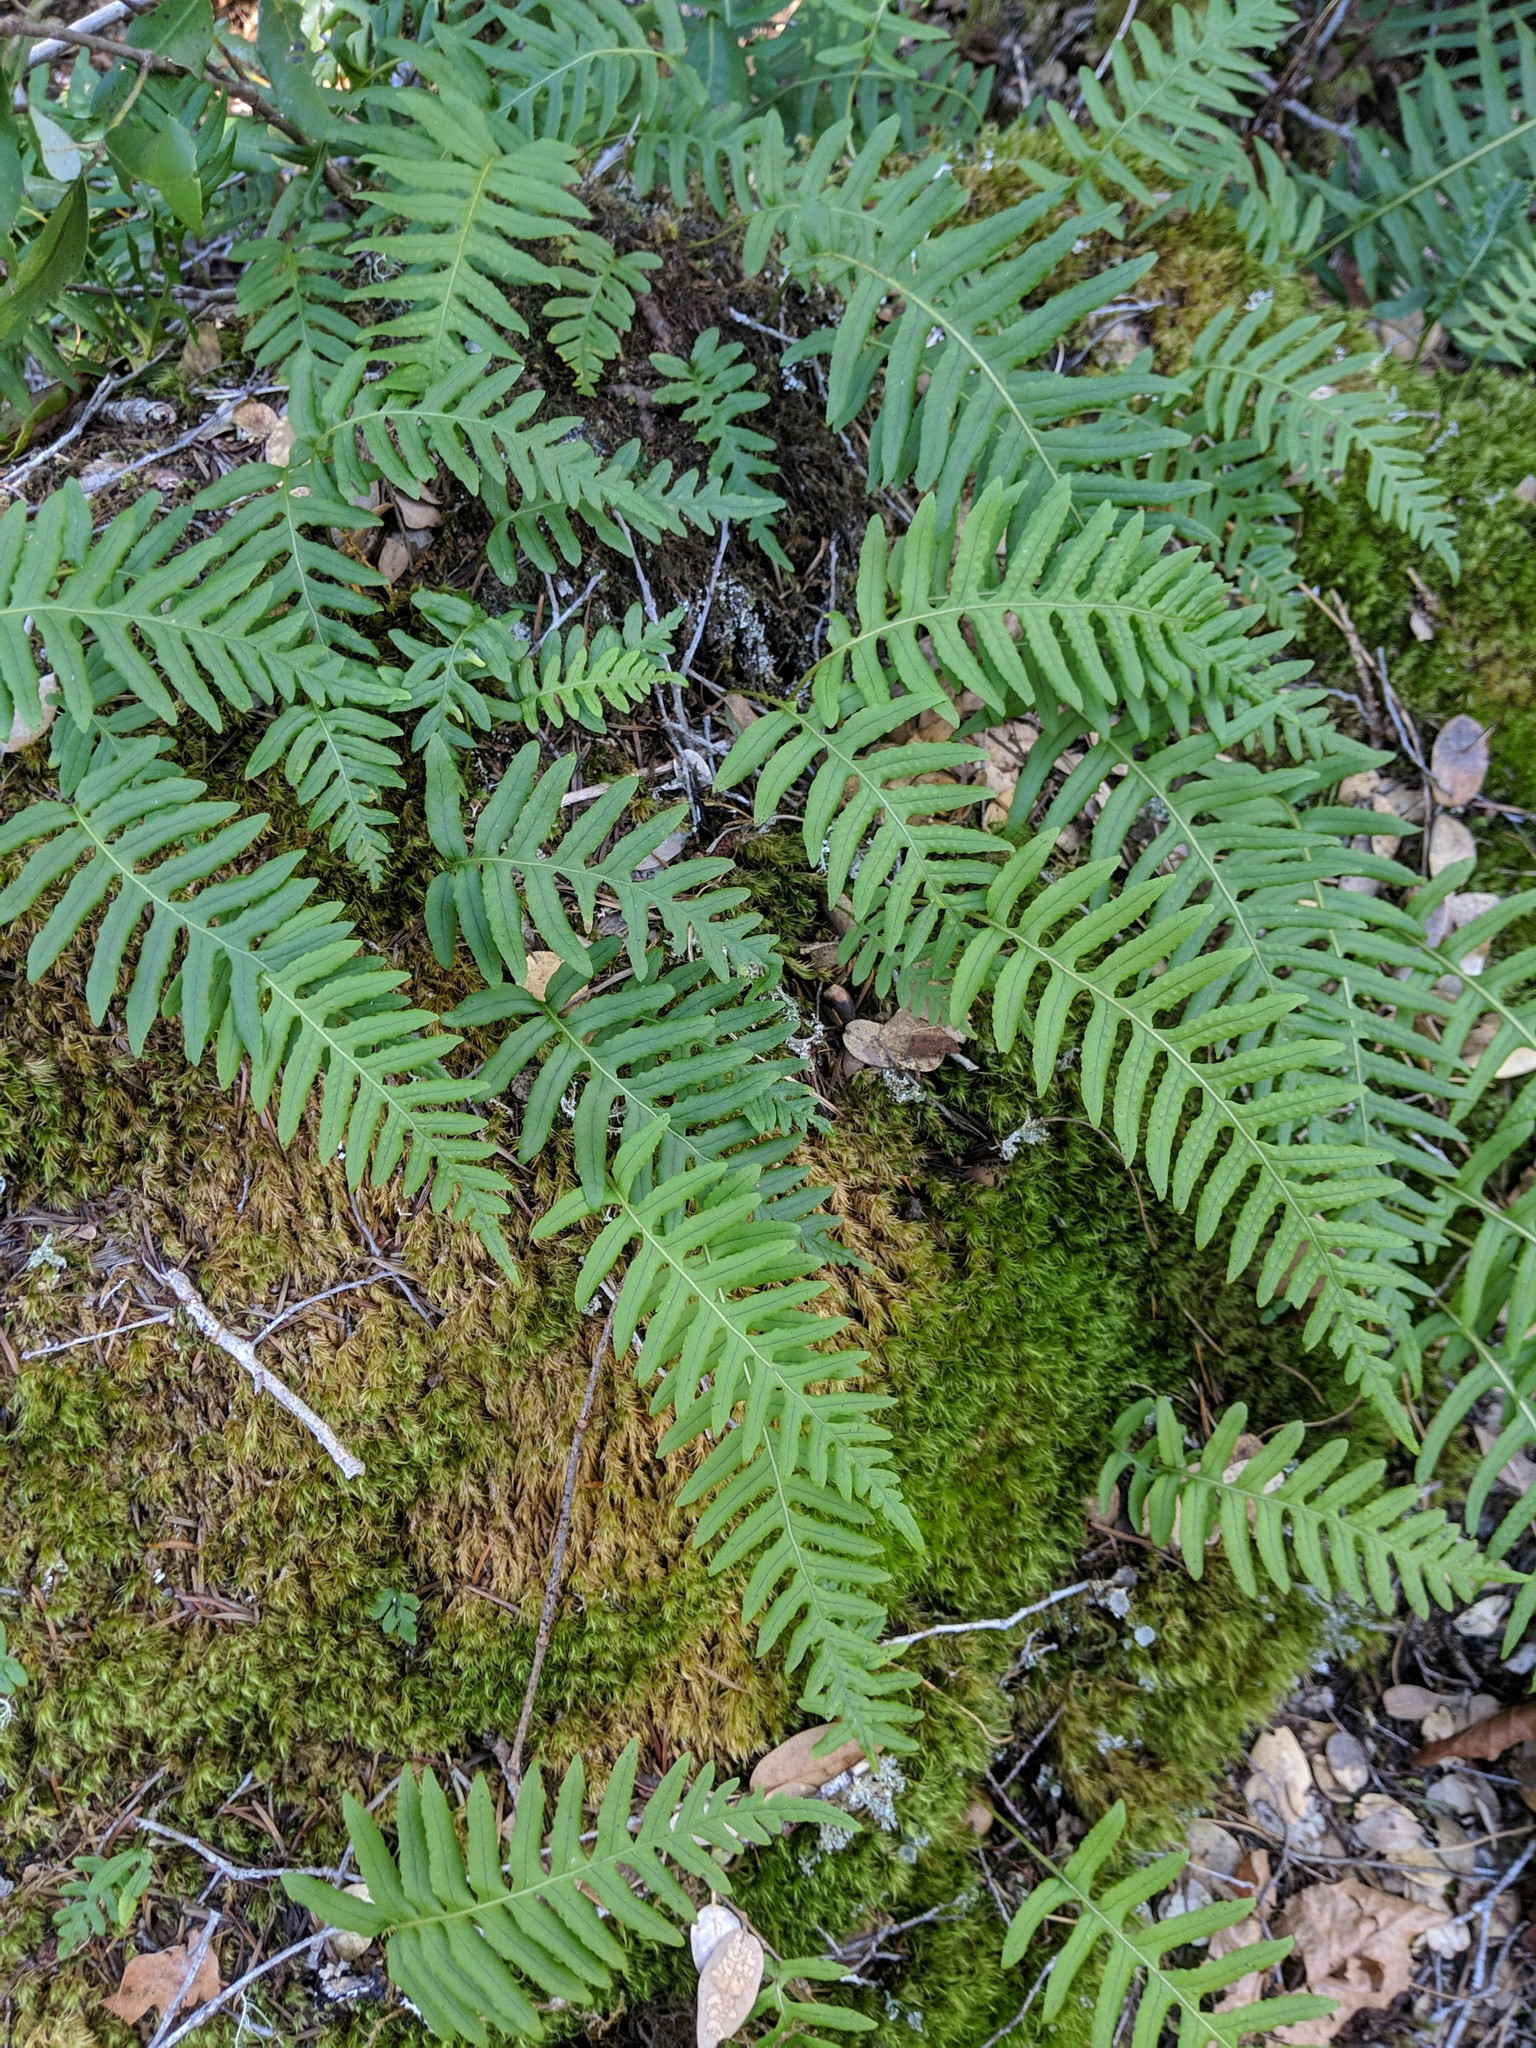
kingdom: Plantae
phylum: Tracheophyta
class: Polypodiopsida
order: Polypodiales
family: Polypodiaceae
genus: Polypodium
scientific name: Polypodium glycyrrhiza
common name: Licorice fern
